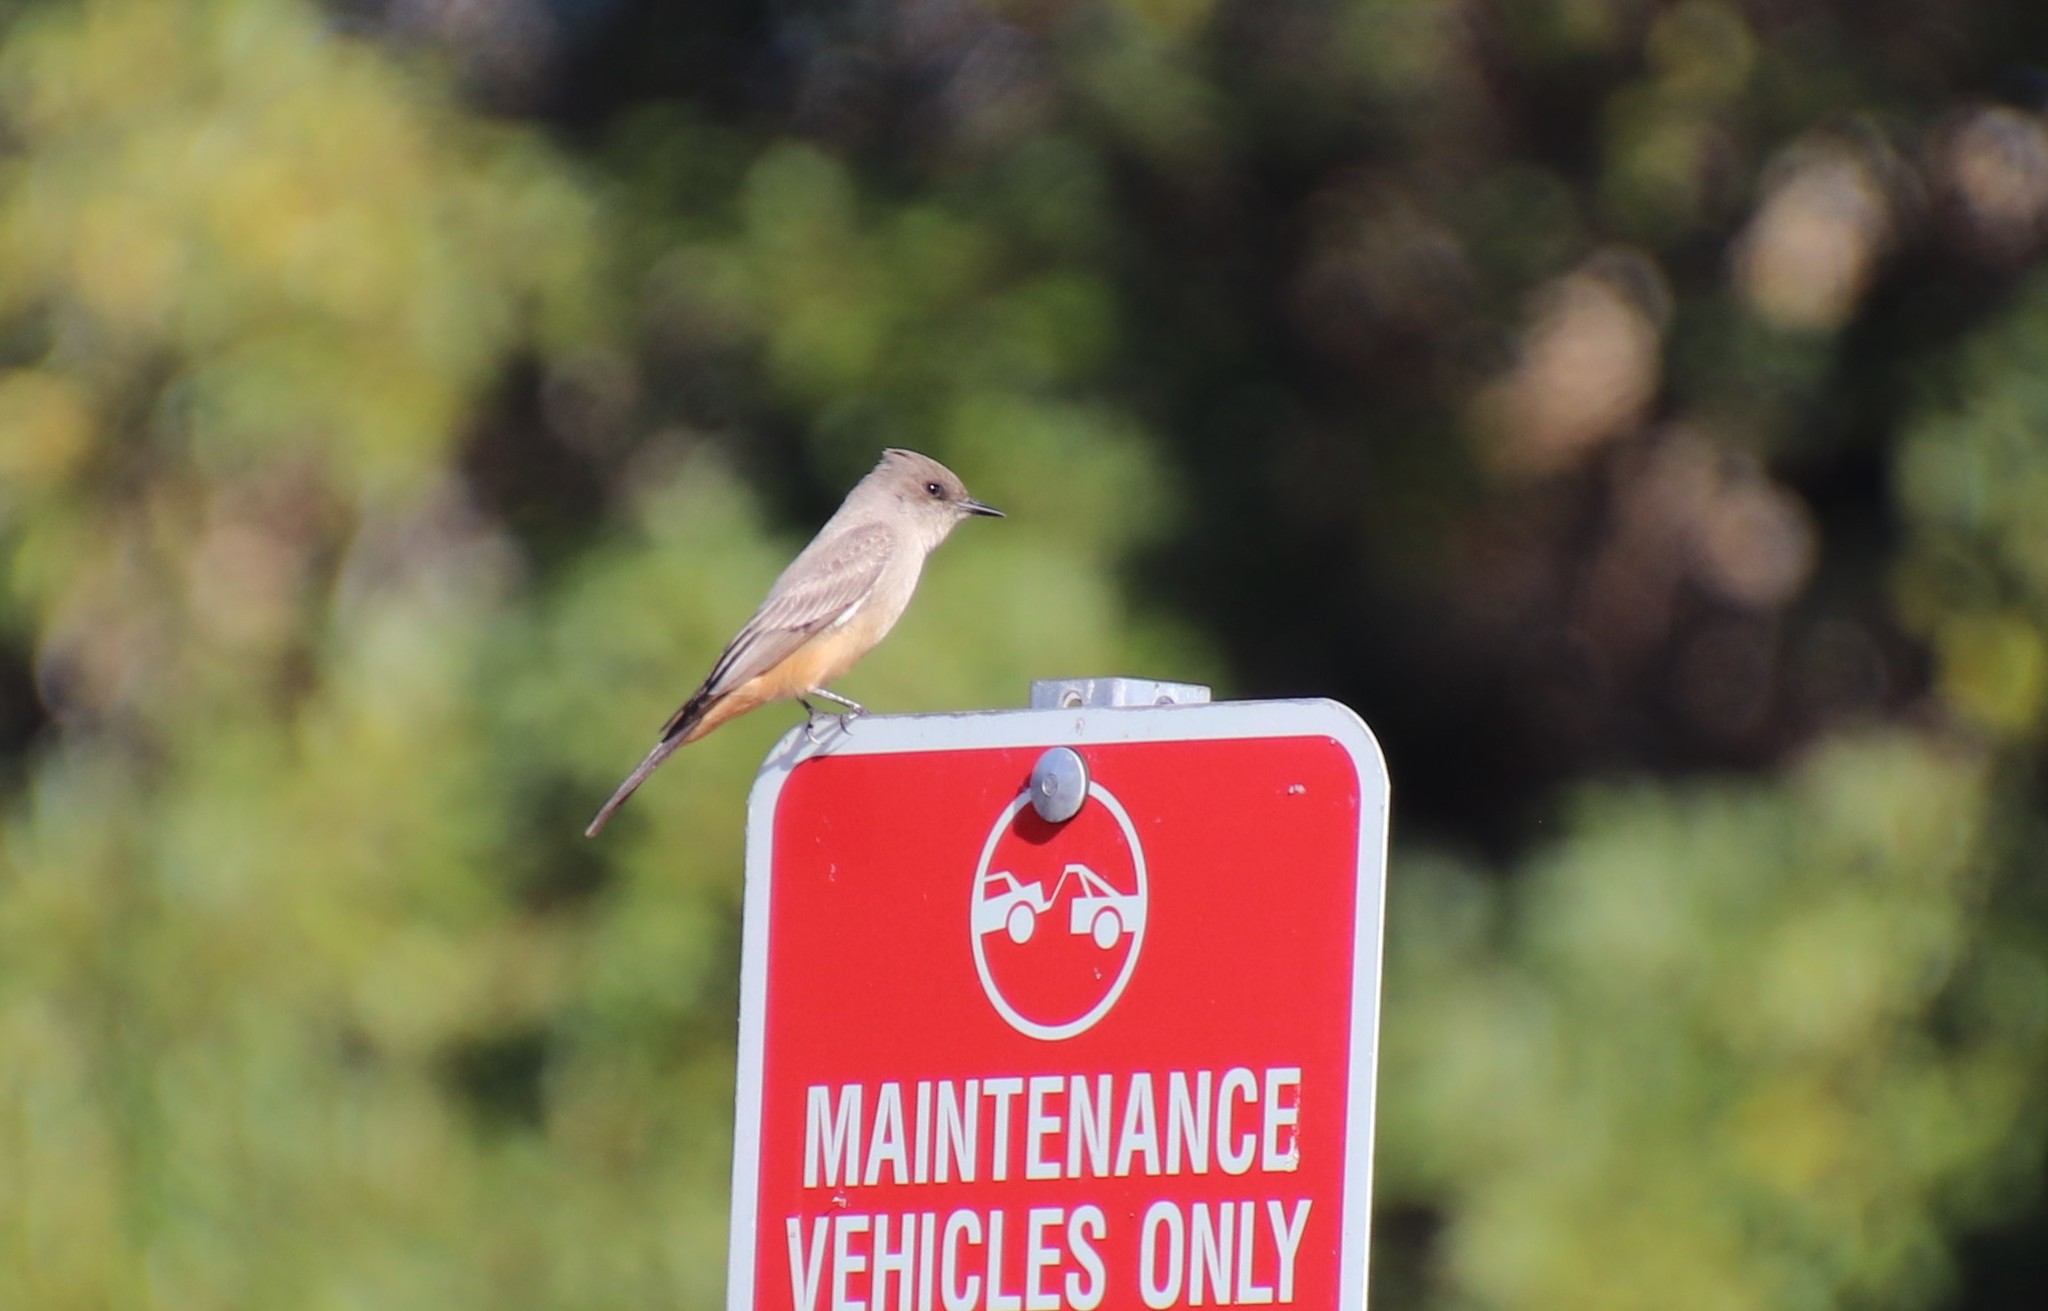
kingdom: Animalia
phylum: Chordata
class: Aves
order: Passeriformes
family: Tyrannidae
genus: Sayornis
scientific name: Sayornis saya
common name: Say's phoebe
